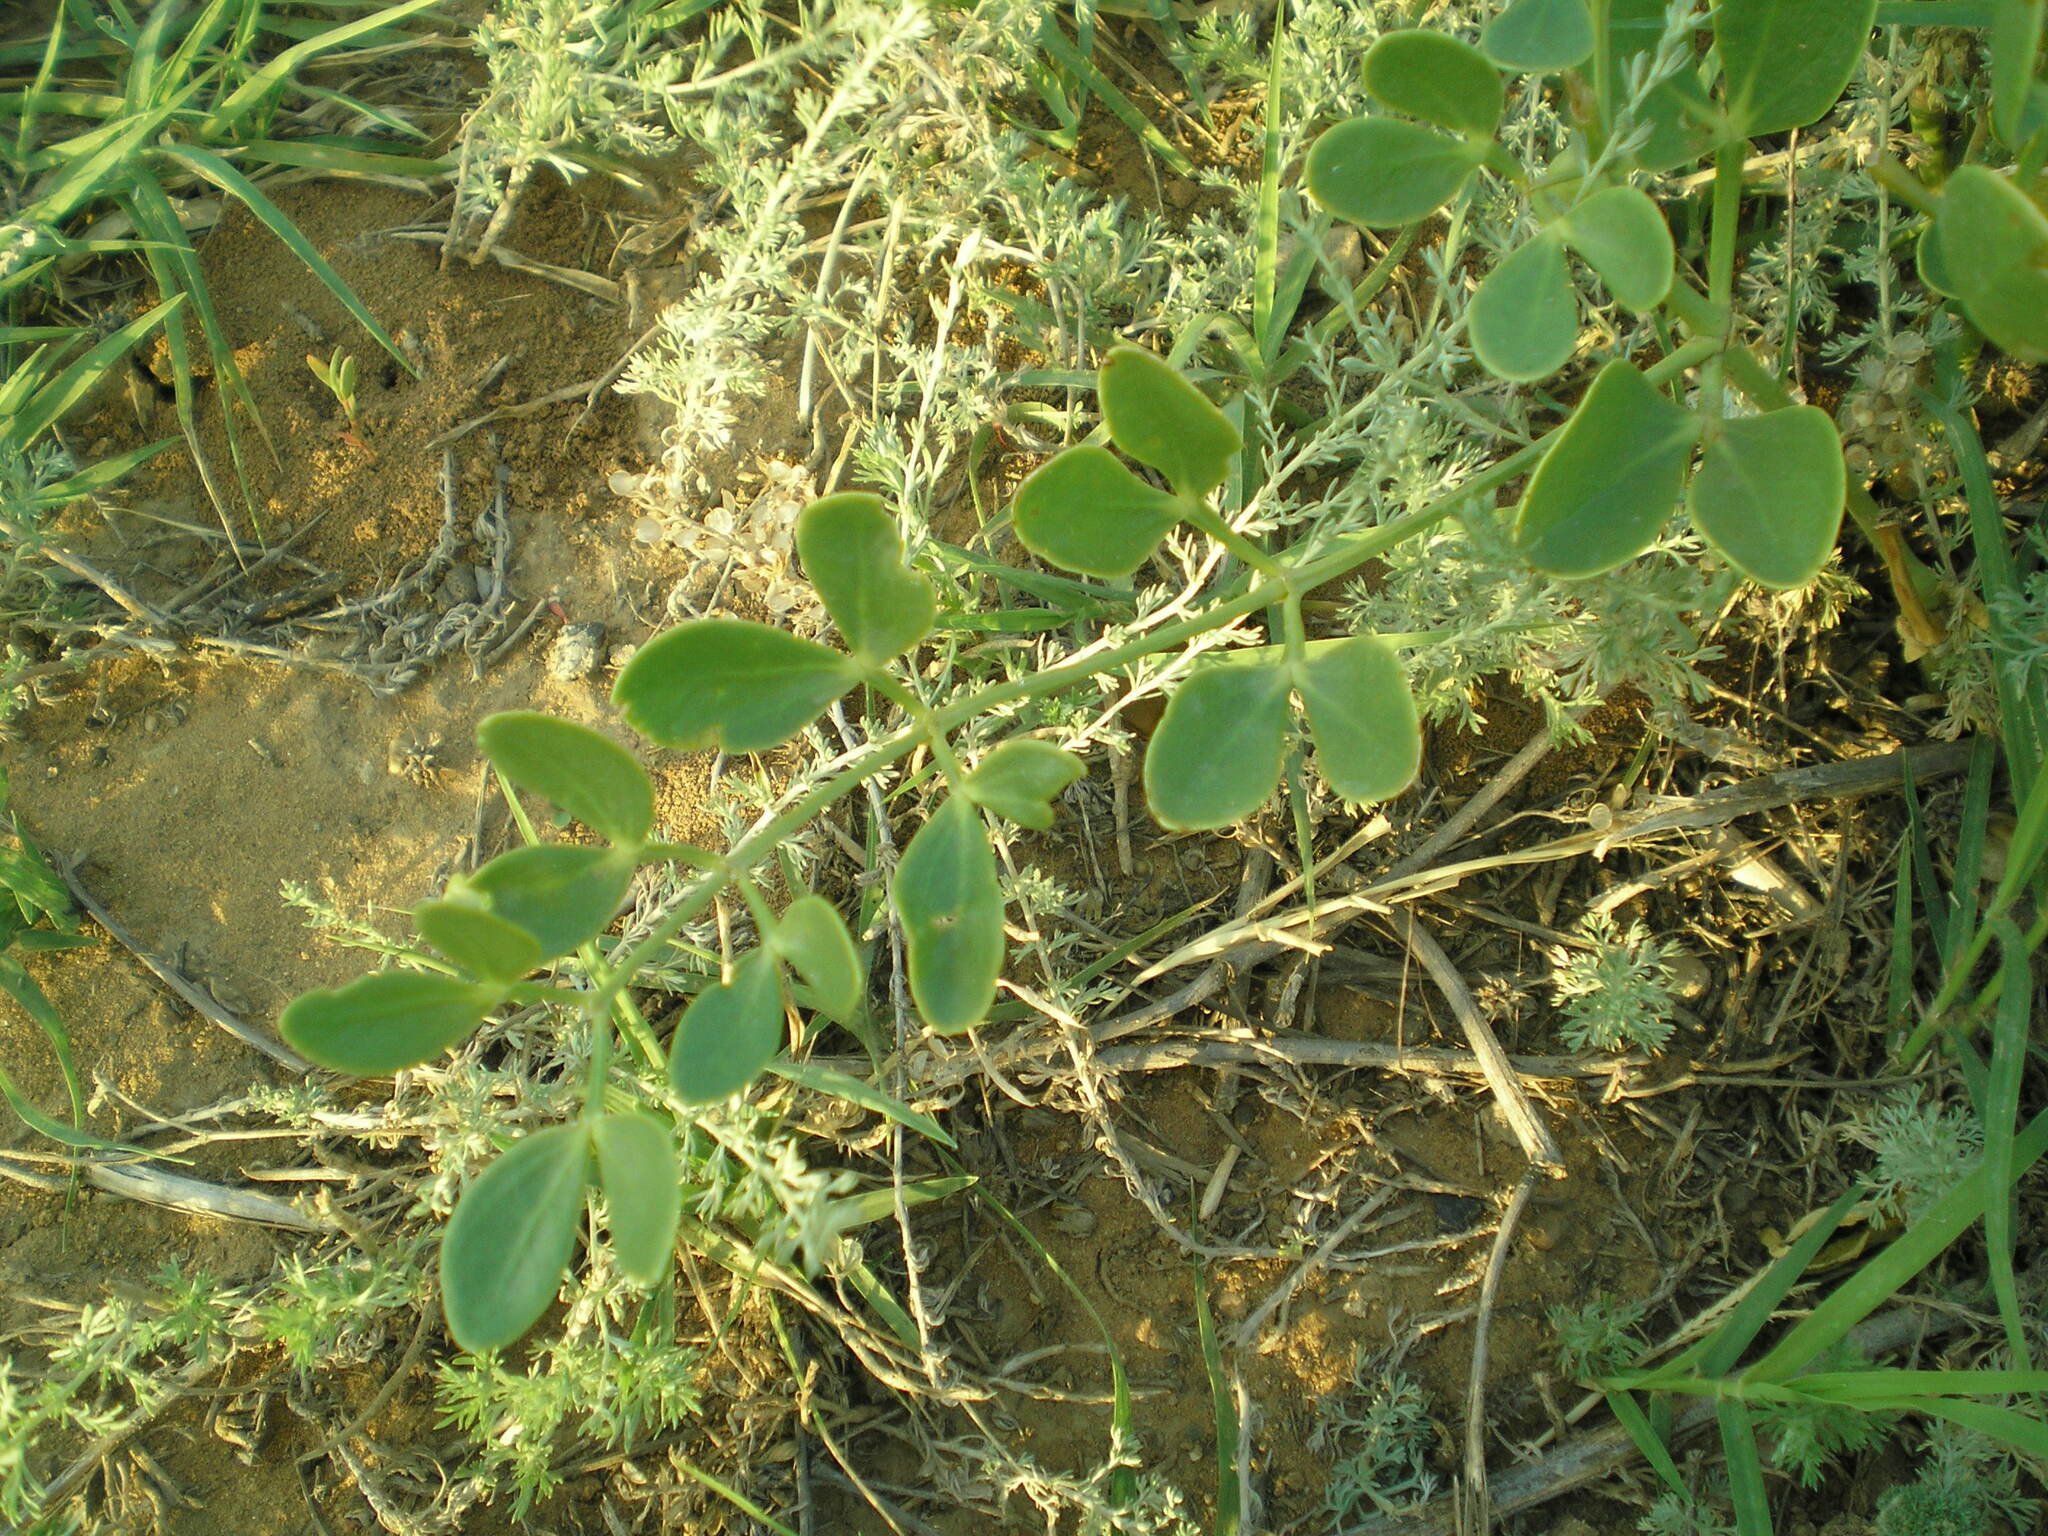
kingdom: Plantae
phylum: Tracheophyta
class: Magnoliopsida
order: Zygophyllales
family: Zygophyllaceae
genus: Zygophyllum
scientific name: Zygophyllum fabago
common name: Syrian beancaper
